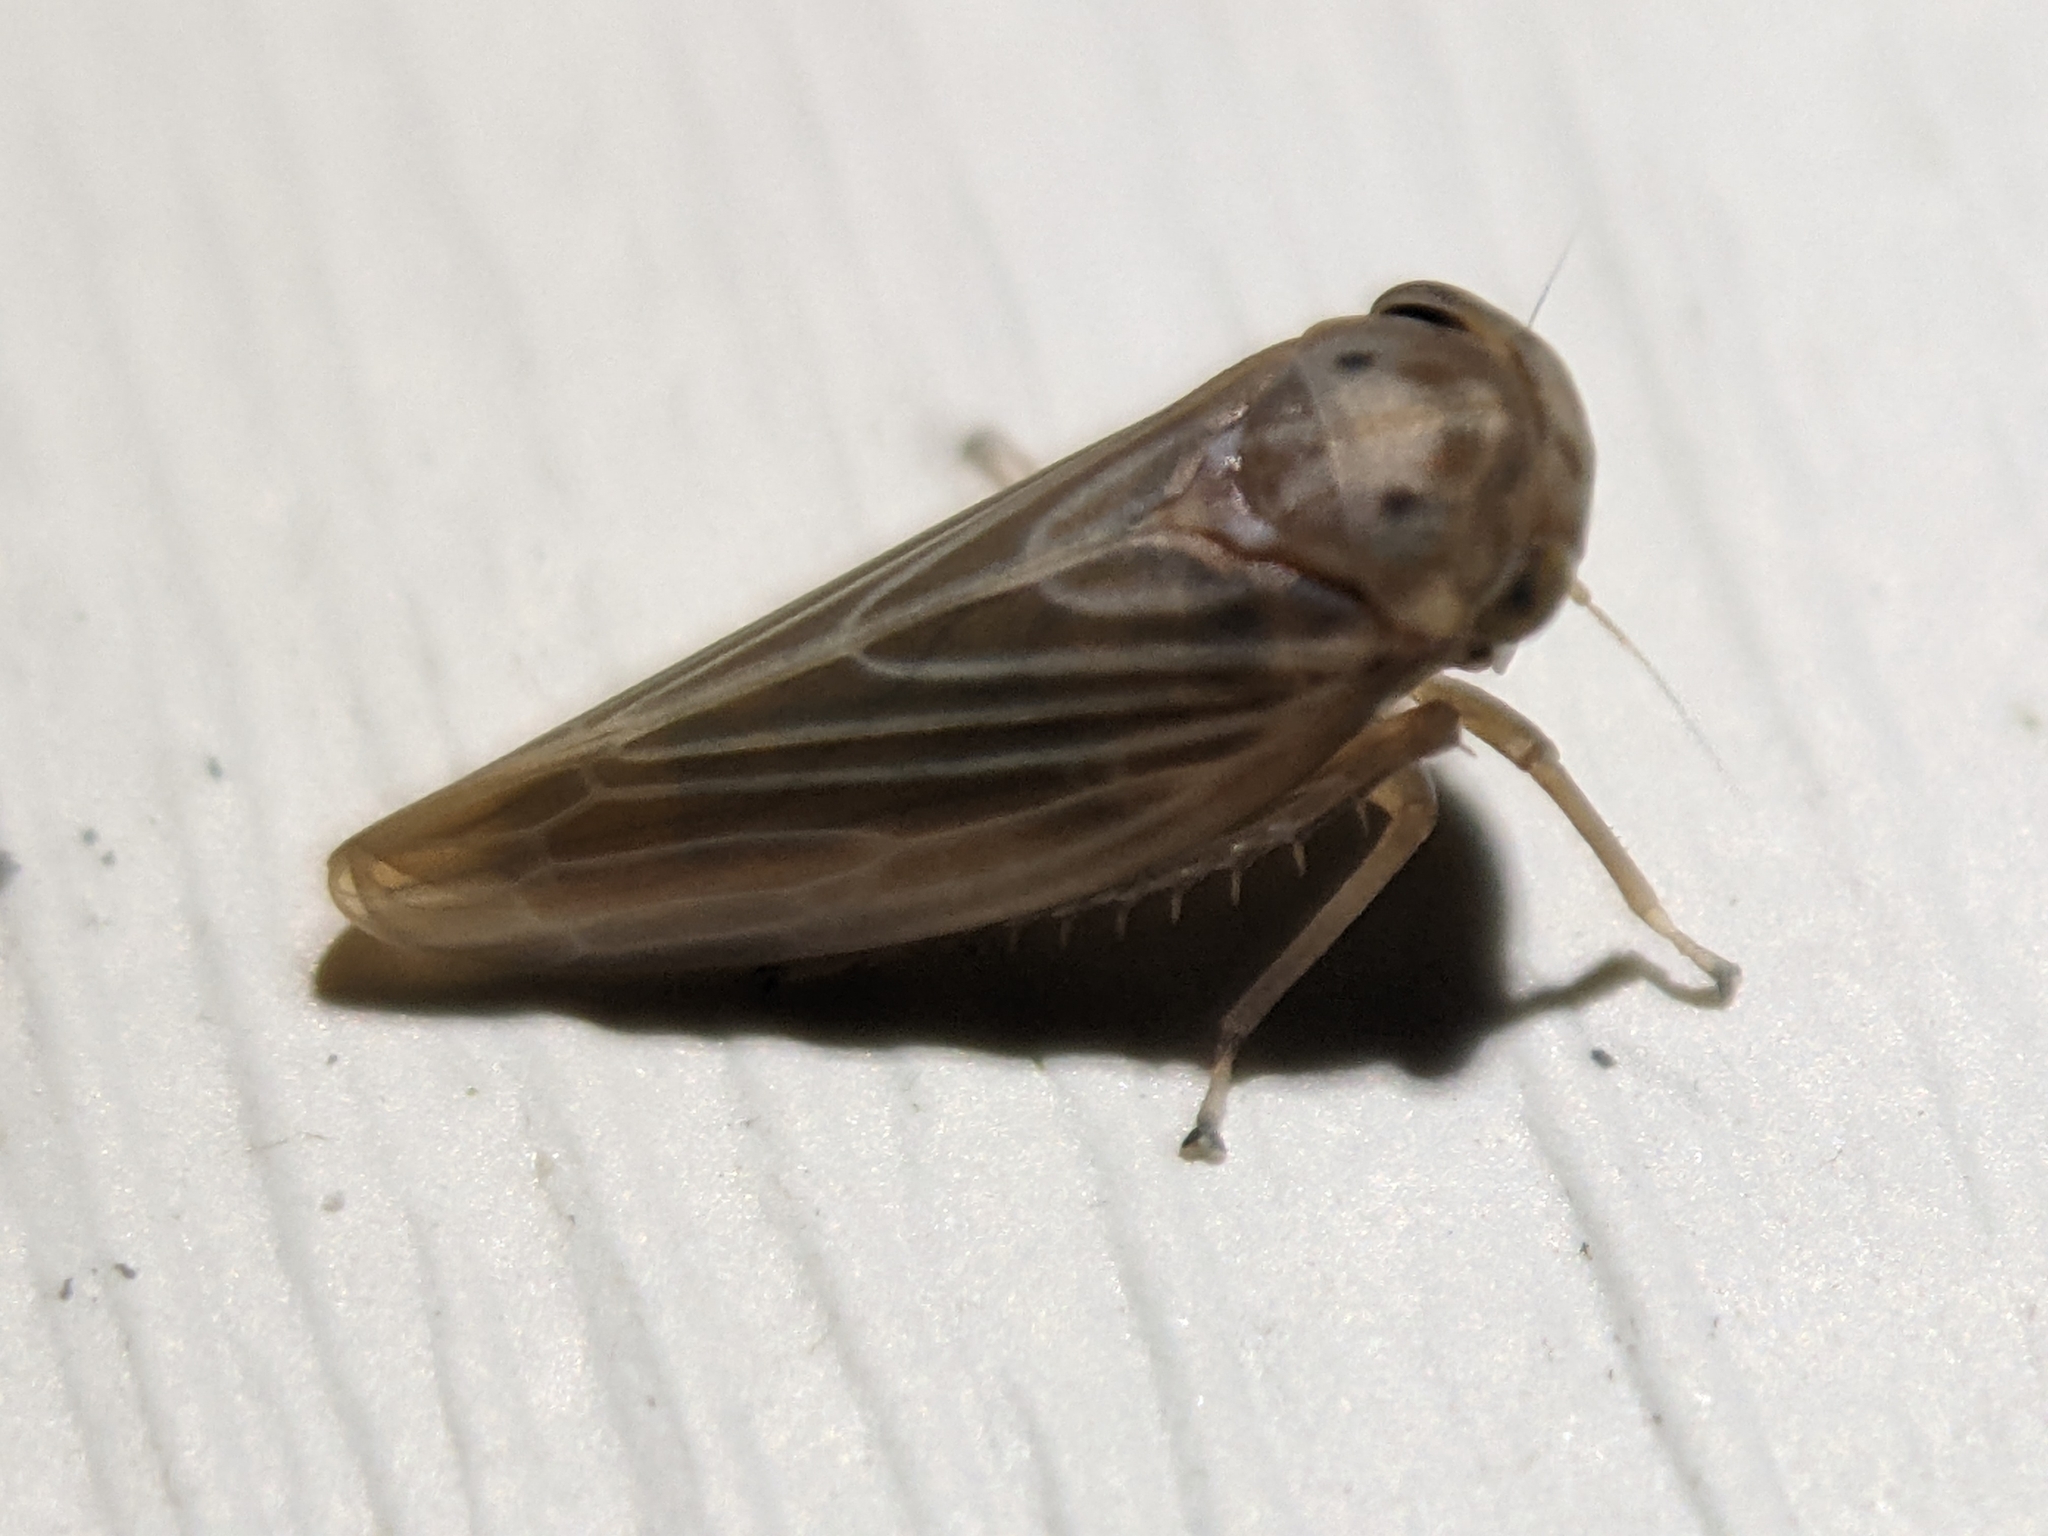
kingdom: Animalia
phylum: Arthropoda
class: Insecta
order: Hemiptera
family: Cicadellidae
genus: Agallia
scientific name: Agallia constricta
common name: The constricted leafhopper
